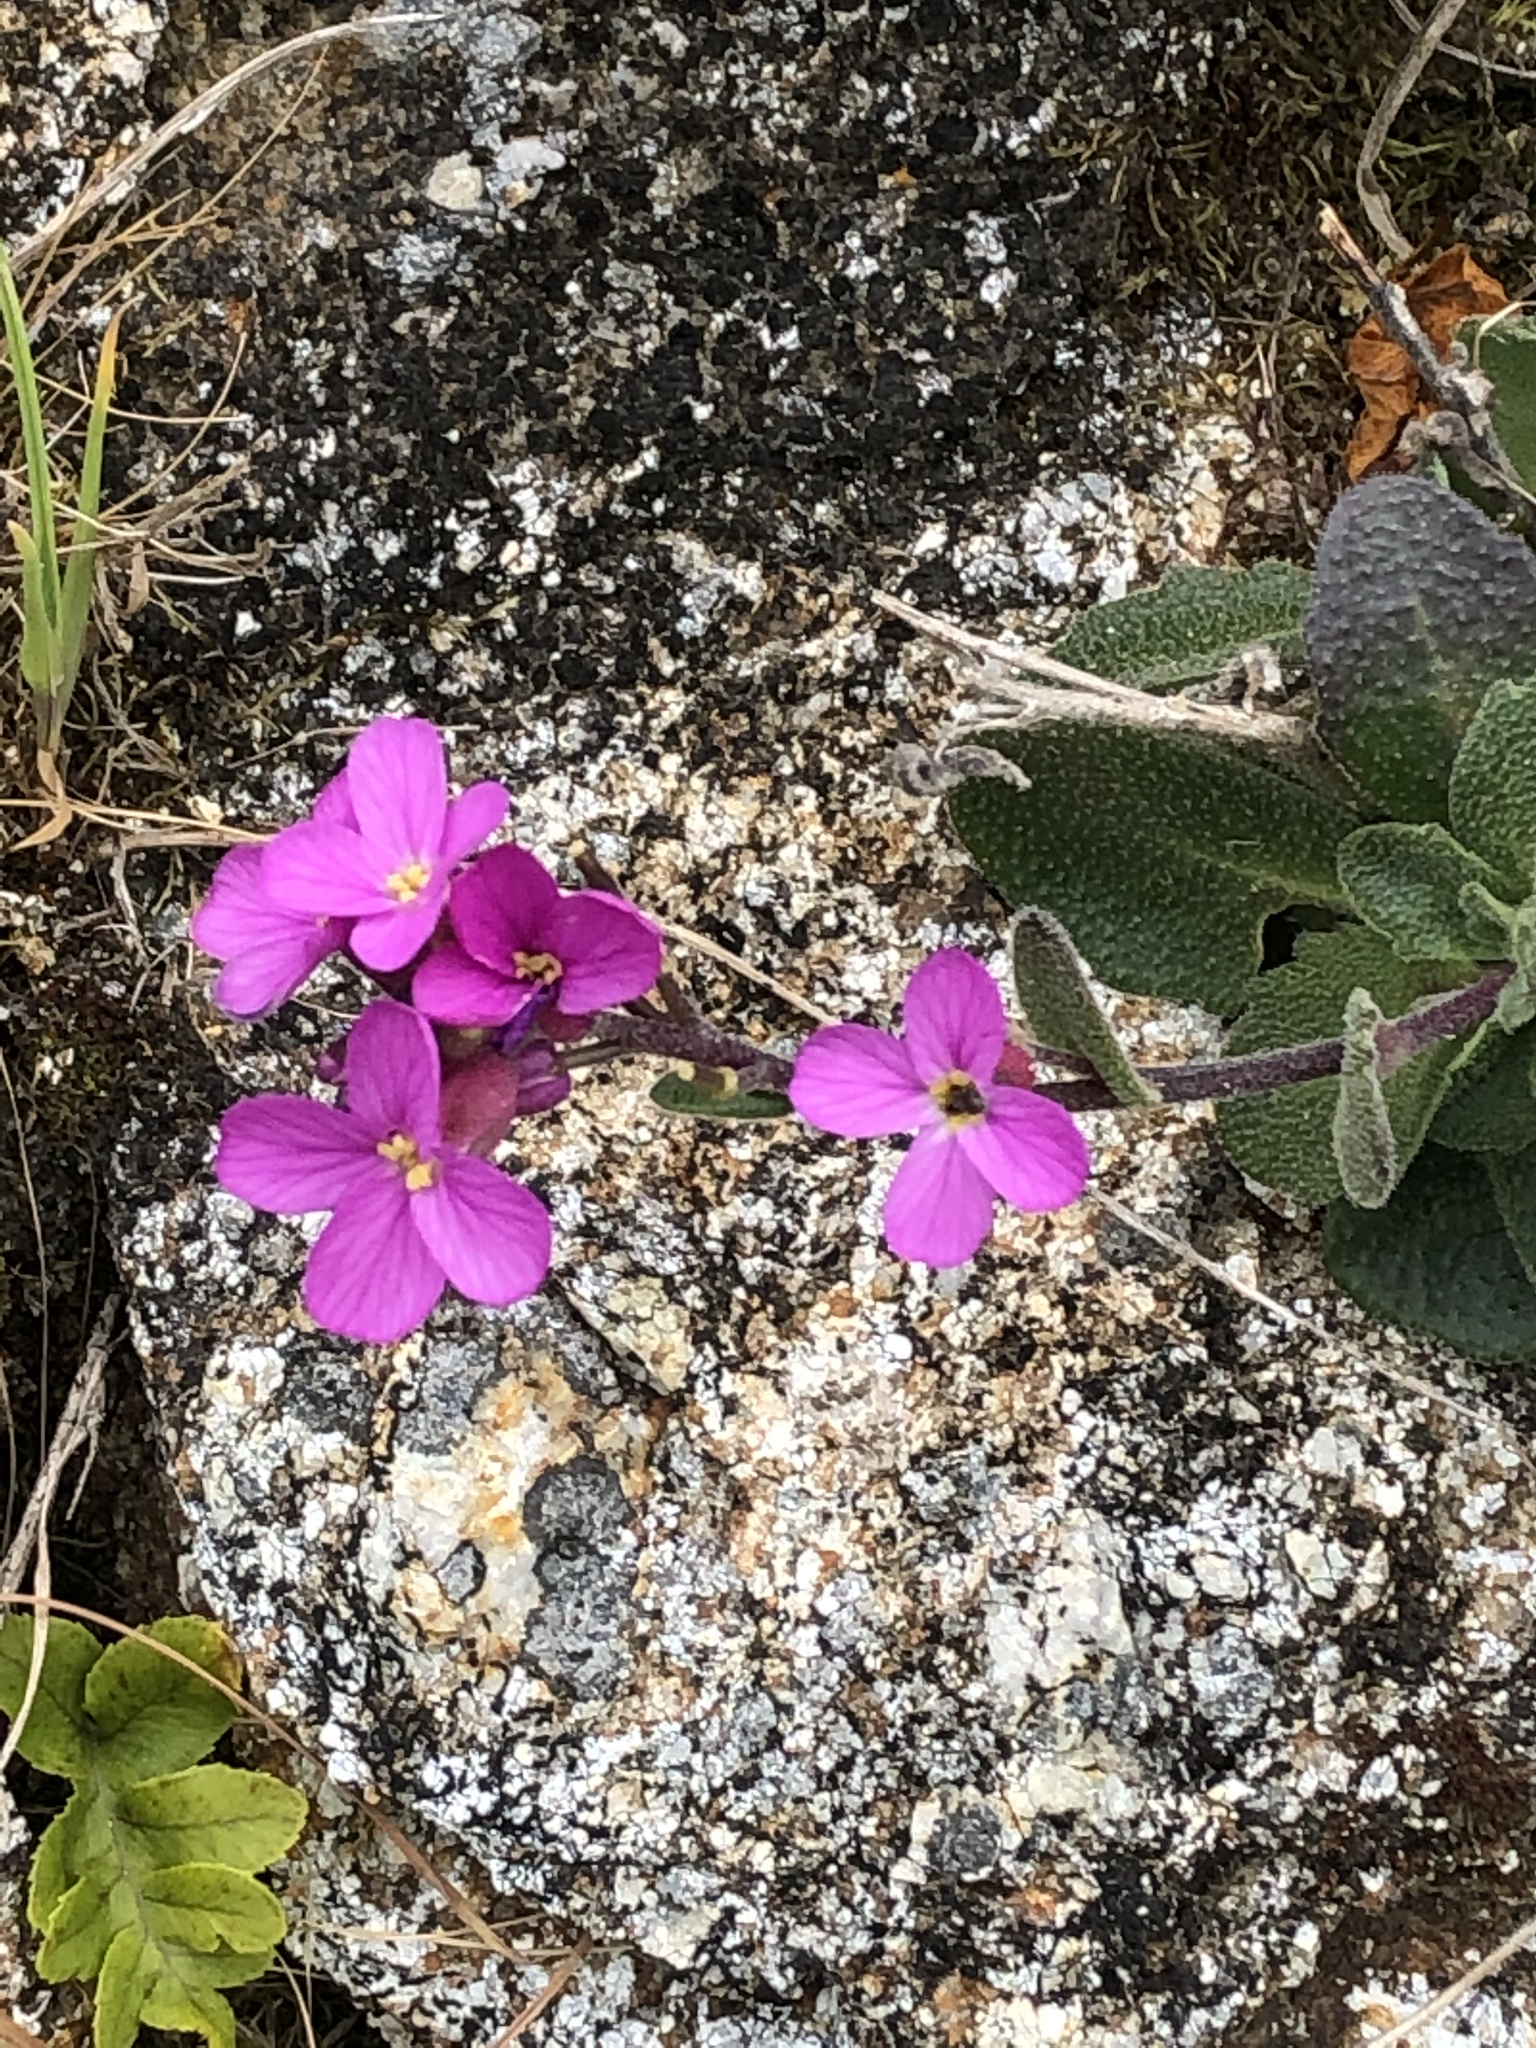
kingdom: Plantae
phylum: Tracheophyta
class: Magnoliopsida
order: Brassicales
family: Brassicaceae
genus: Arabis
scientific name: Arabis blepharophylla
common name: Rose rockcress
